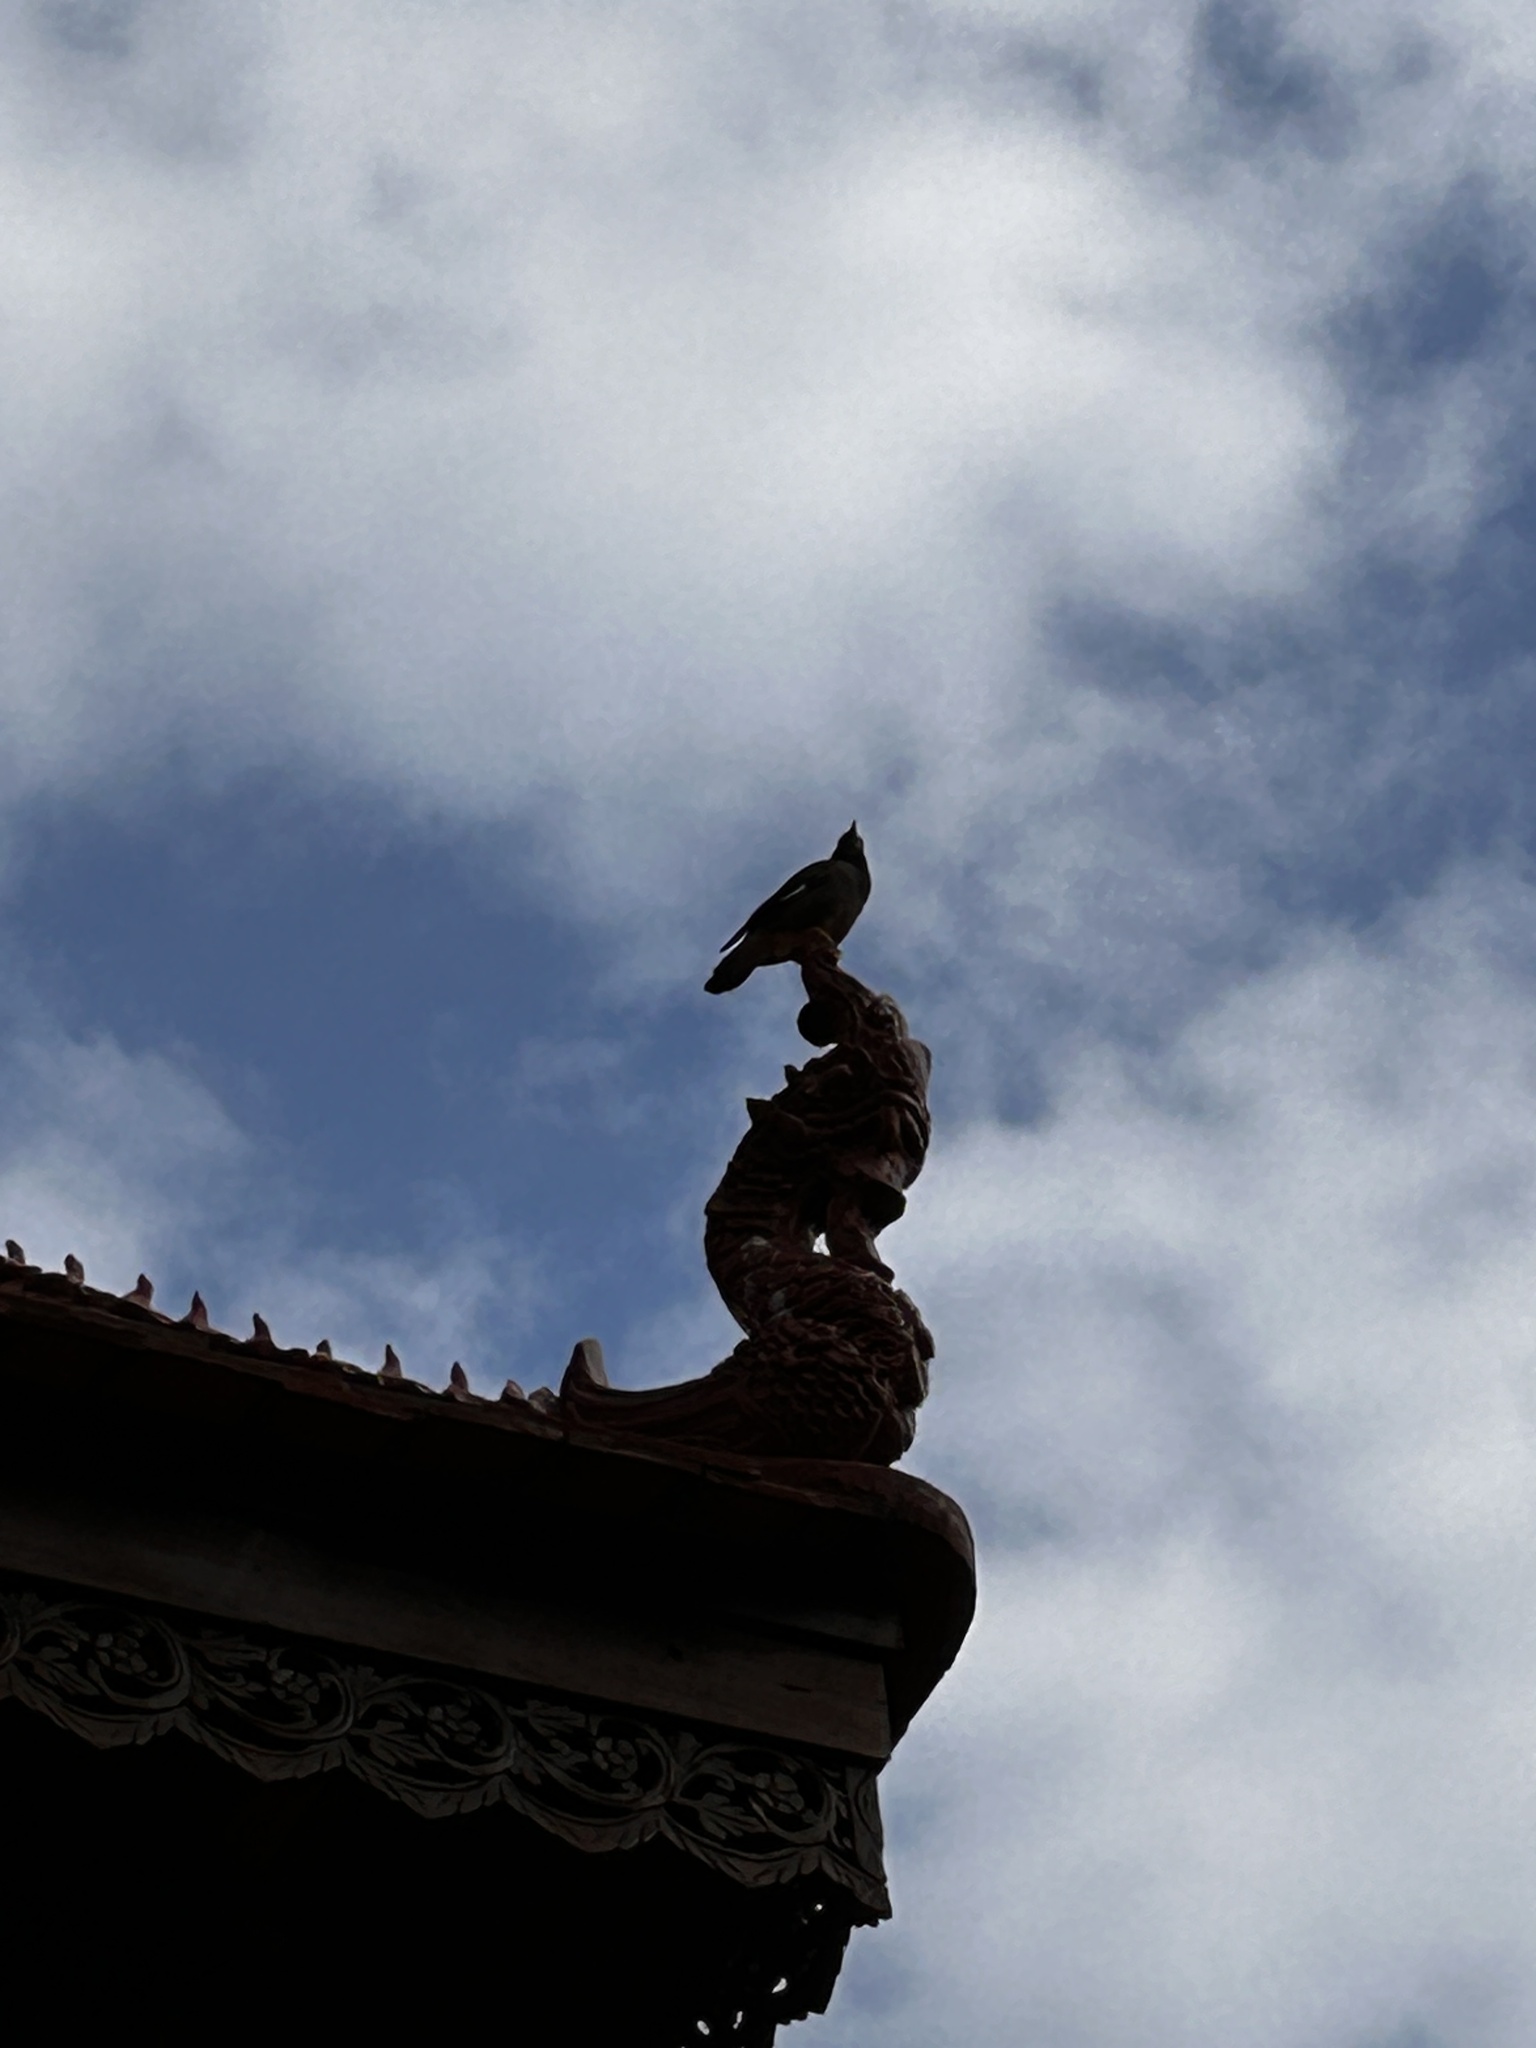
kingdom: Animalia
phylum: Chordata
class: Aves
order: Passeriformes
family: Sturnidae
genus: Acridotheres
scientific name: Acridotheres tristis
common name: Common myna
